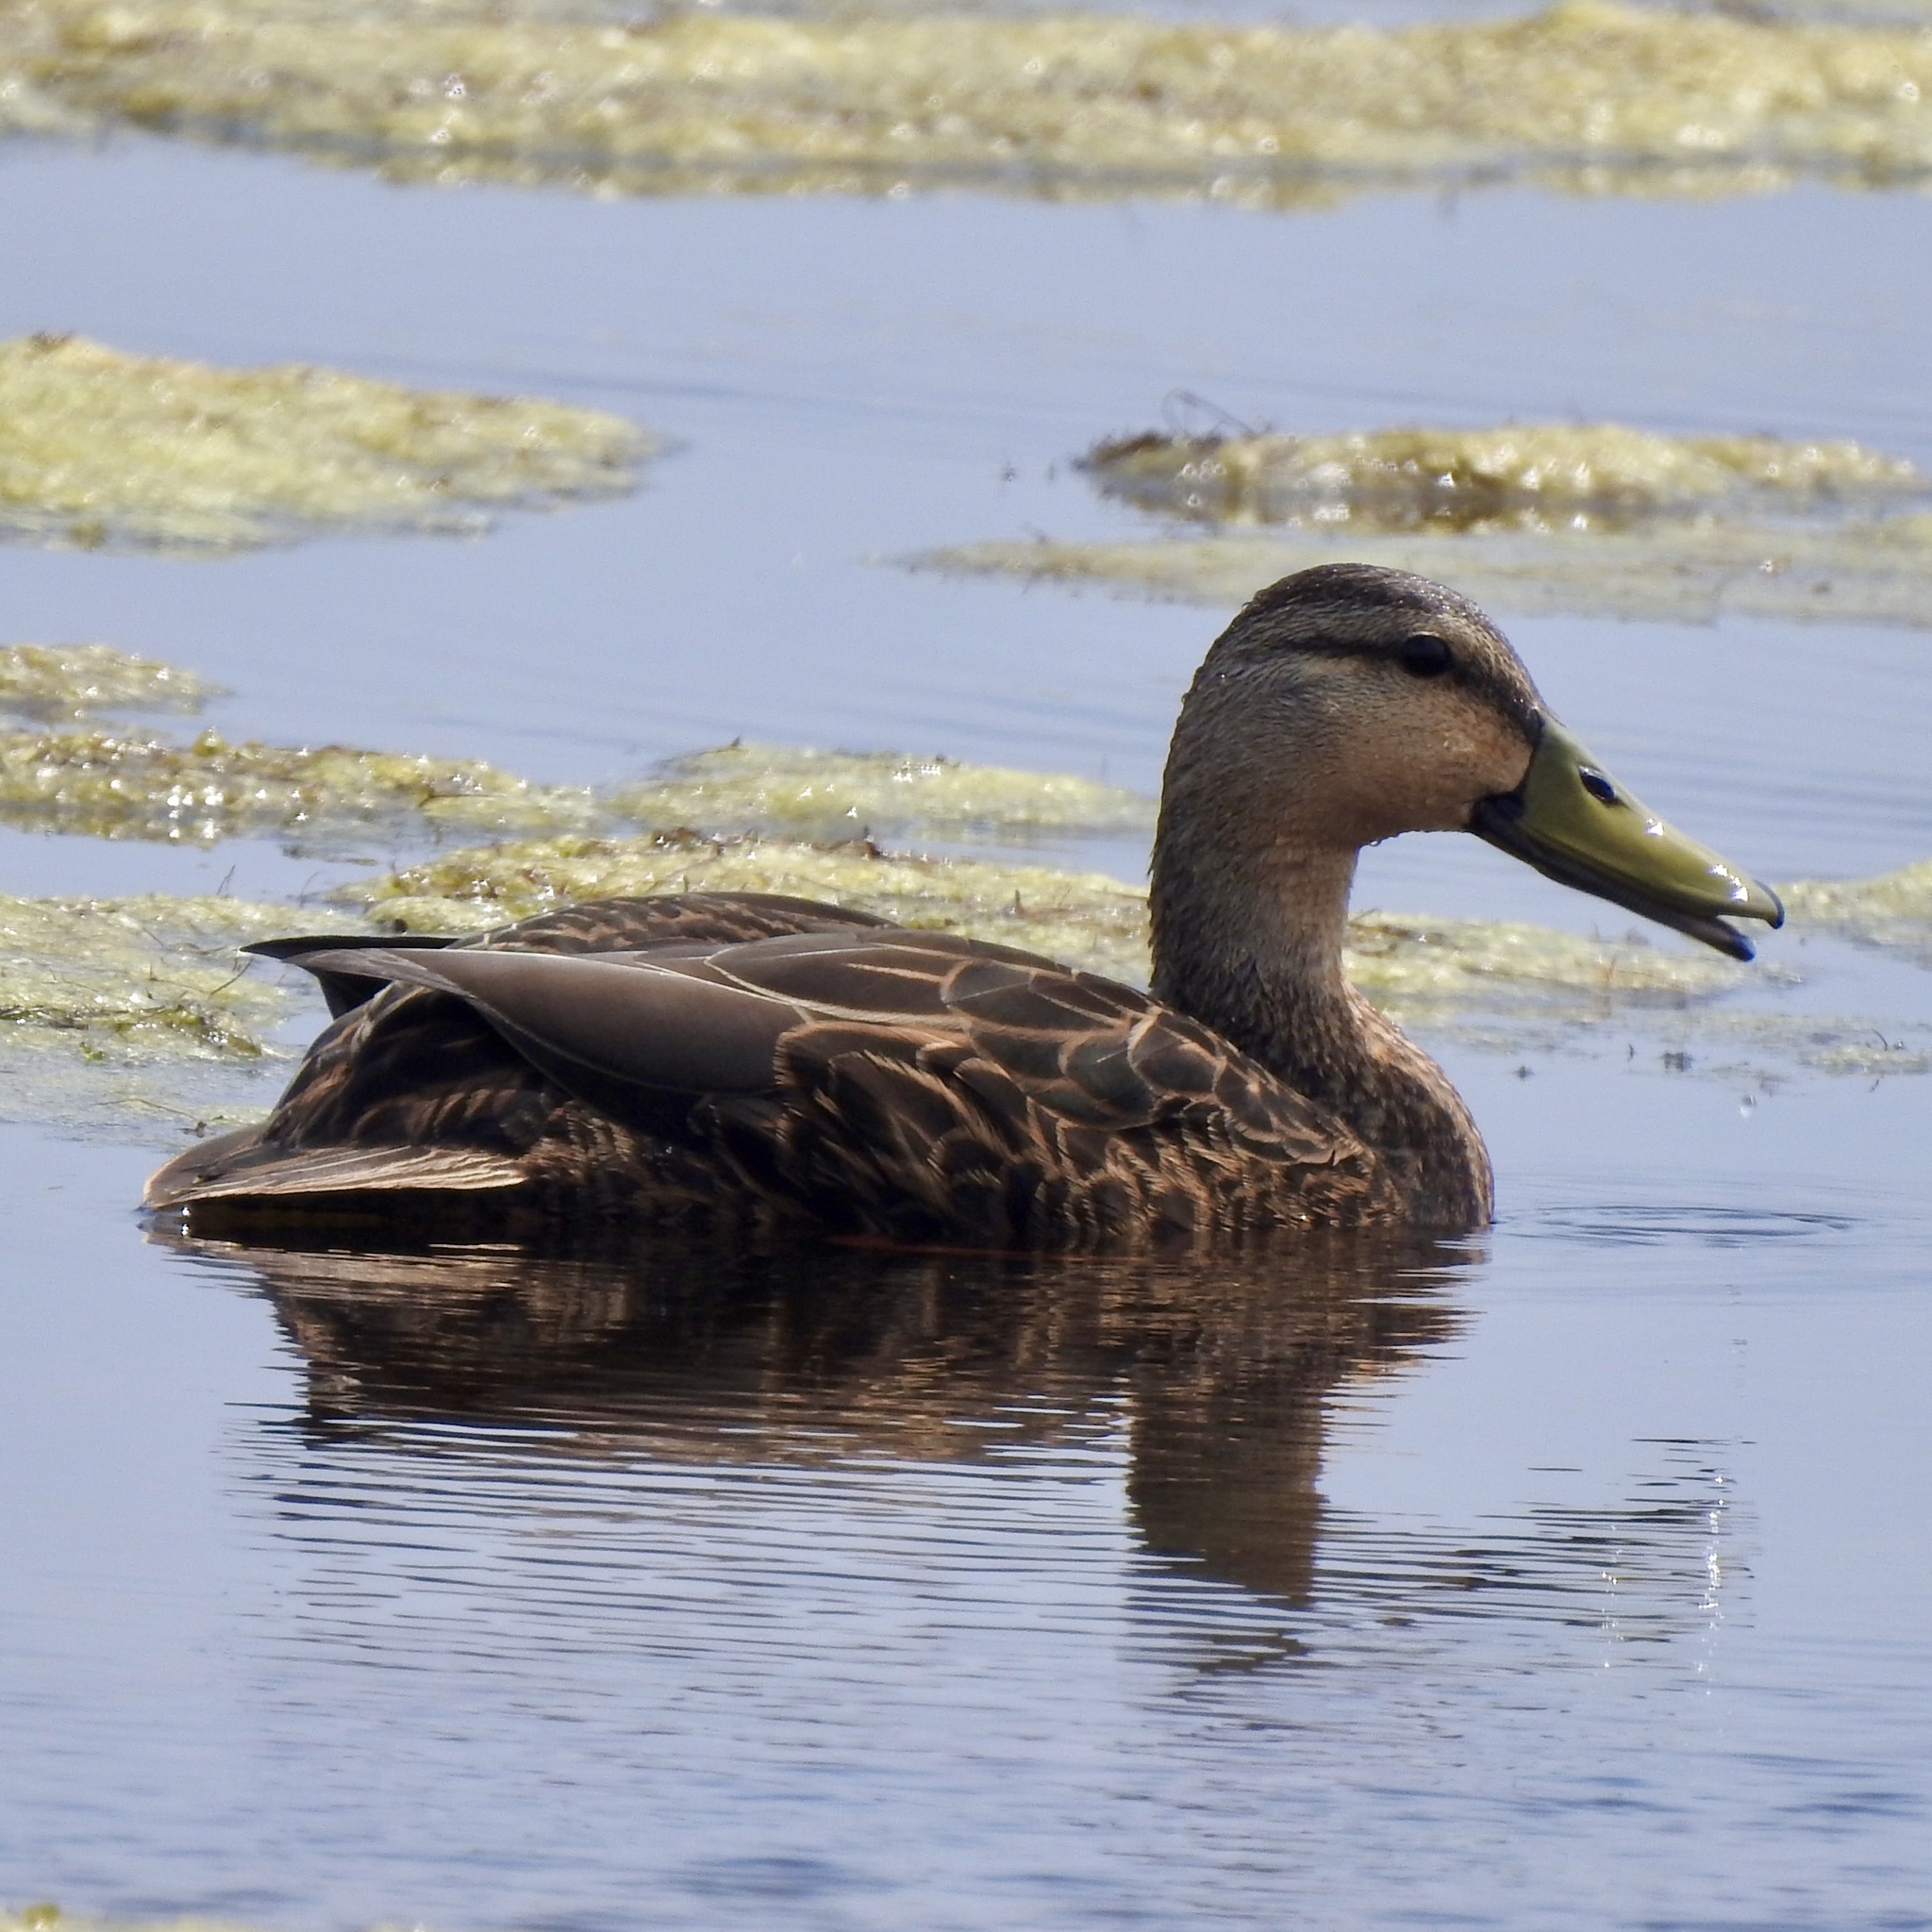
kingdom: Animalia
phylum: Chordata
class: Aves
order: Anseriformes
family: Anatidae
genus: Anas
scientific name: Anas fulvigula
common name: Mottled duck
